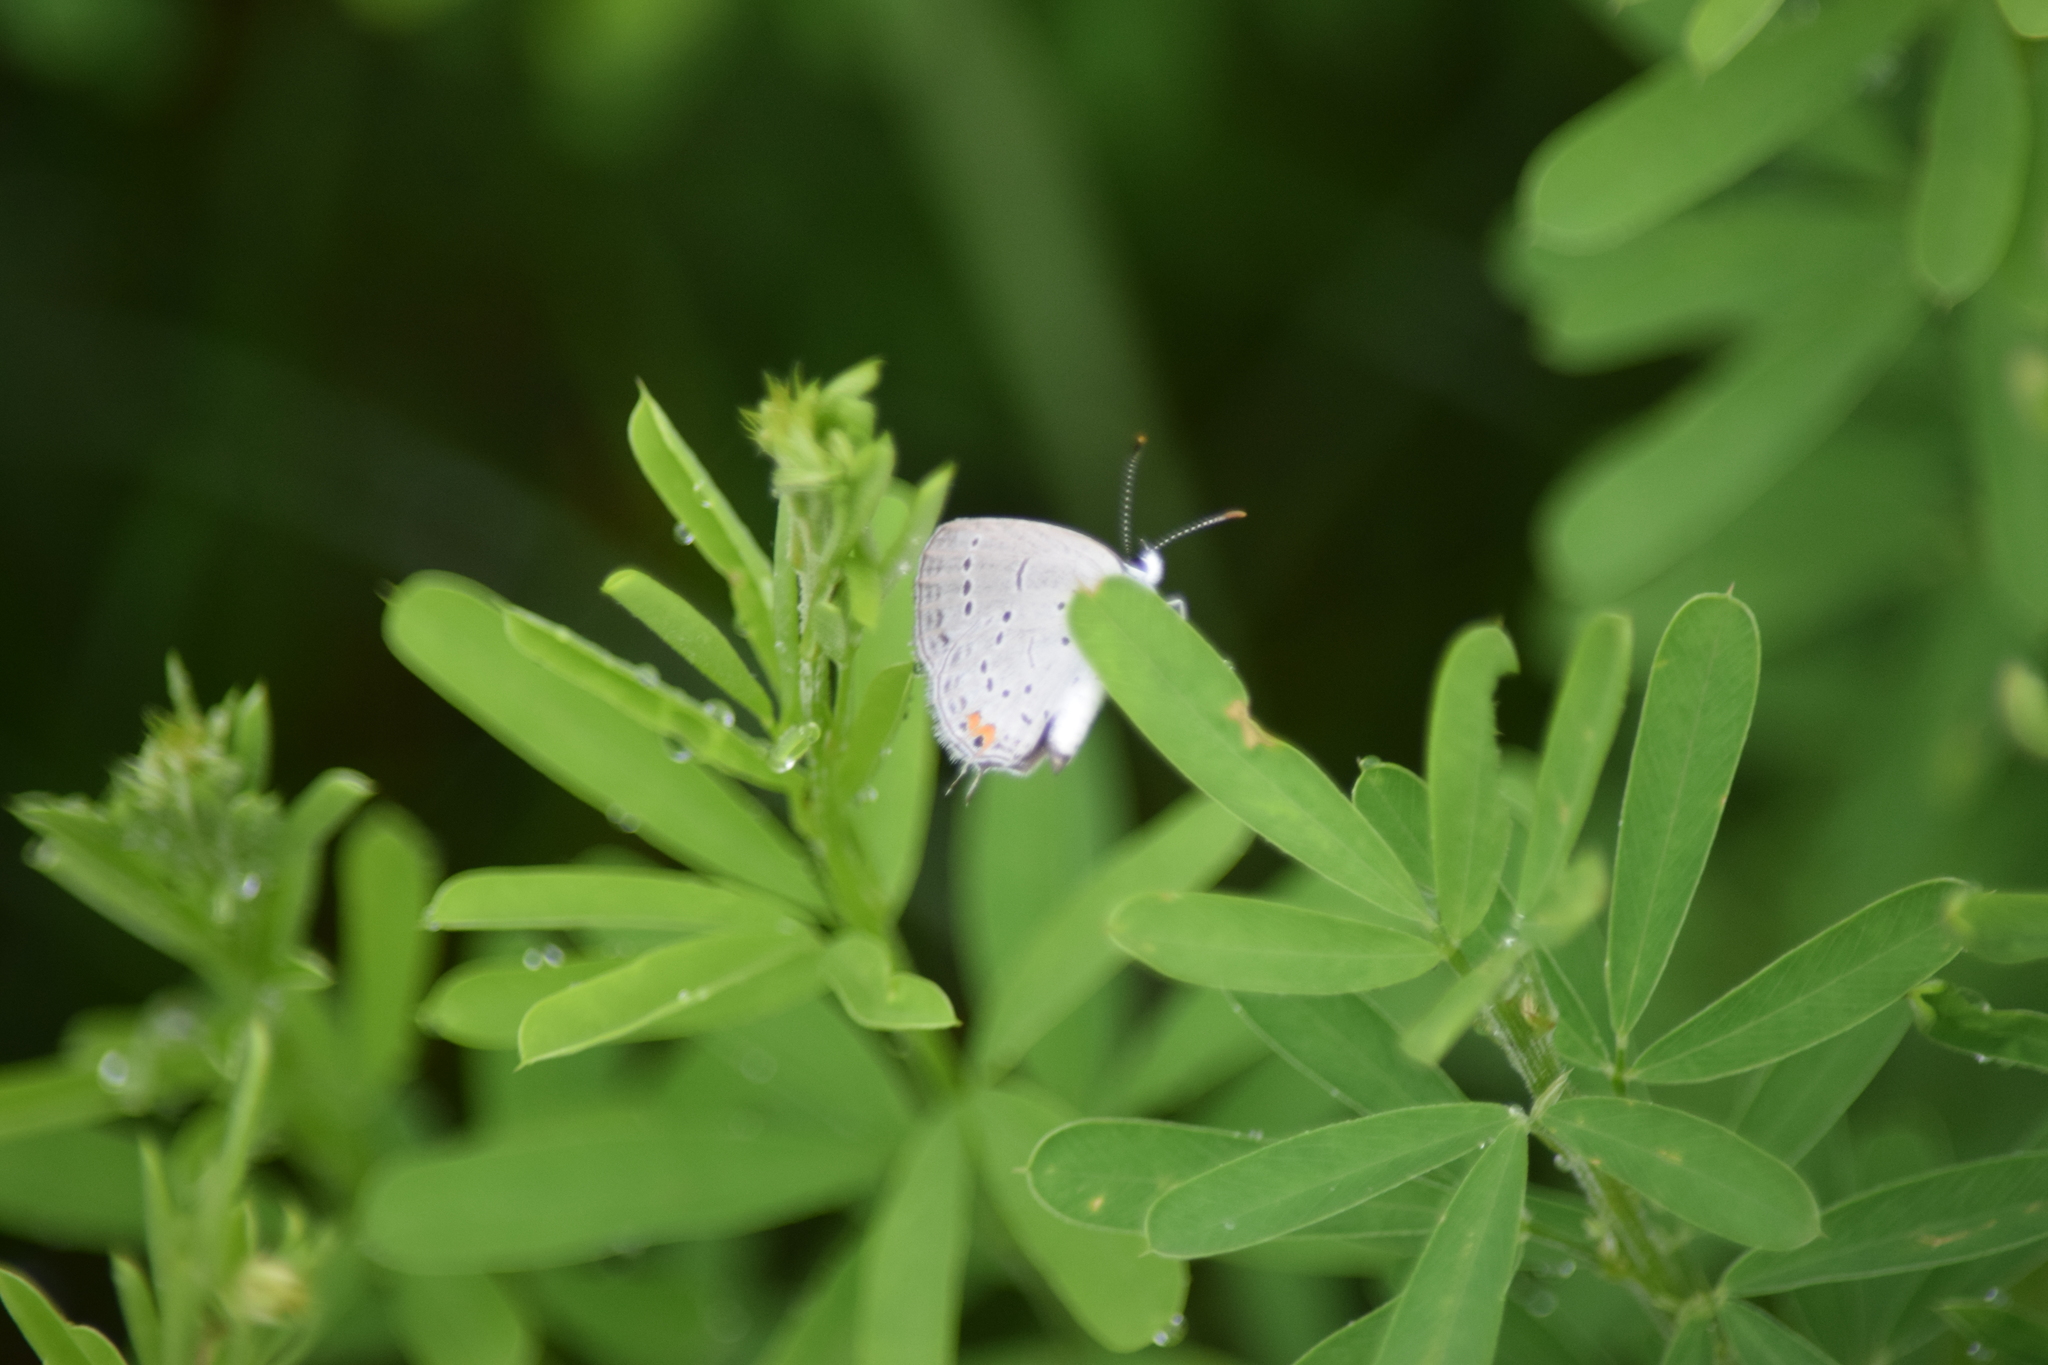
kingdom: Animalia
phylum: Arthropoda
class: Insecta
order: Lepidoptera
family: Lycaenidae
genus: Elkalyce
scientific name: Elkalyce comyntas
